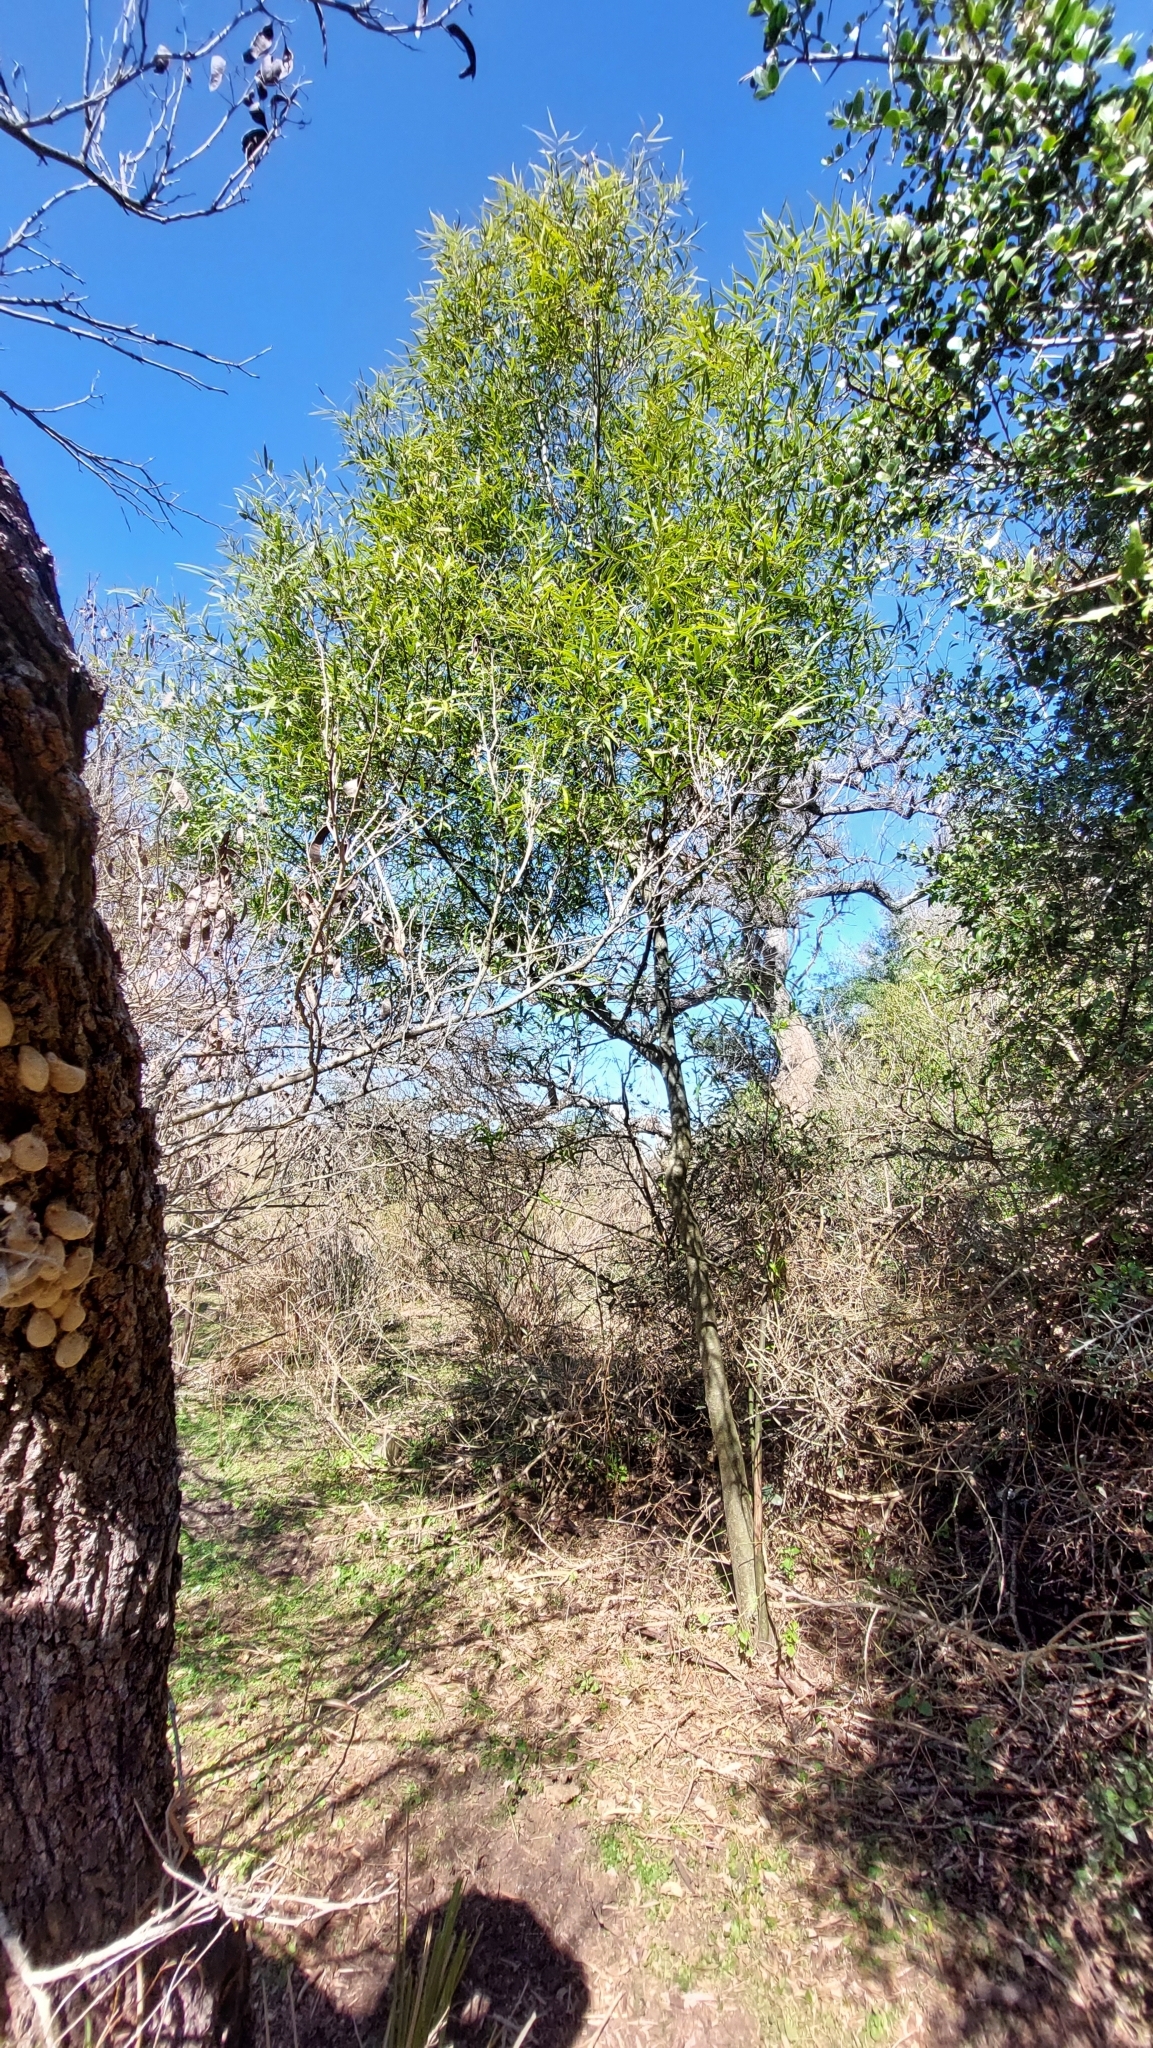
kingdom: Plantae
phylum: Tracheophyta
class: Magnoliopsida
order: Laurales
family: Lauraceae
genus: Nectandra
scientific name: Nectandra angustifolia
